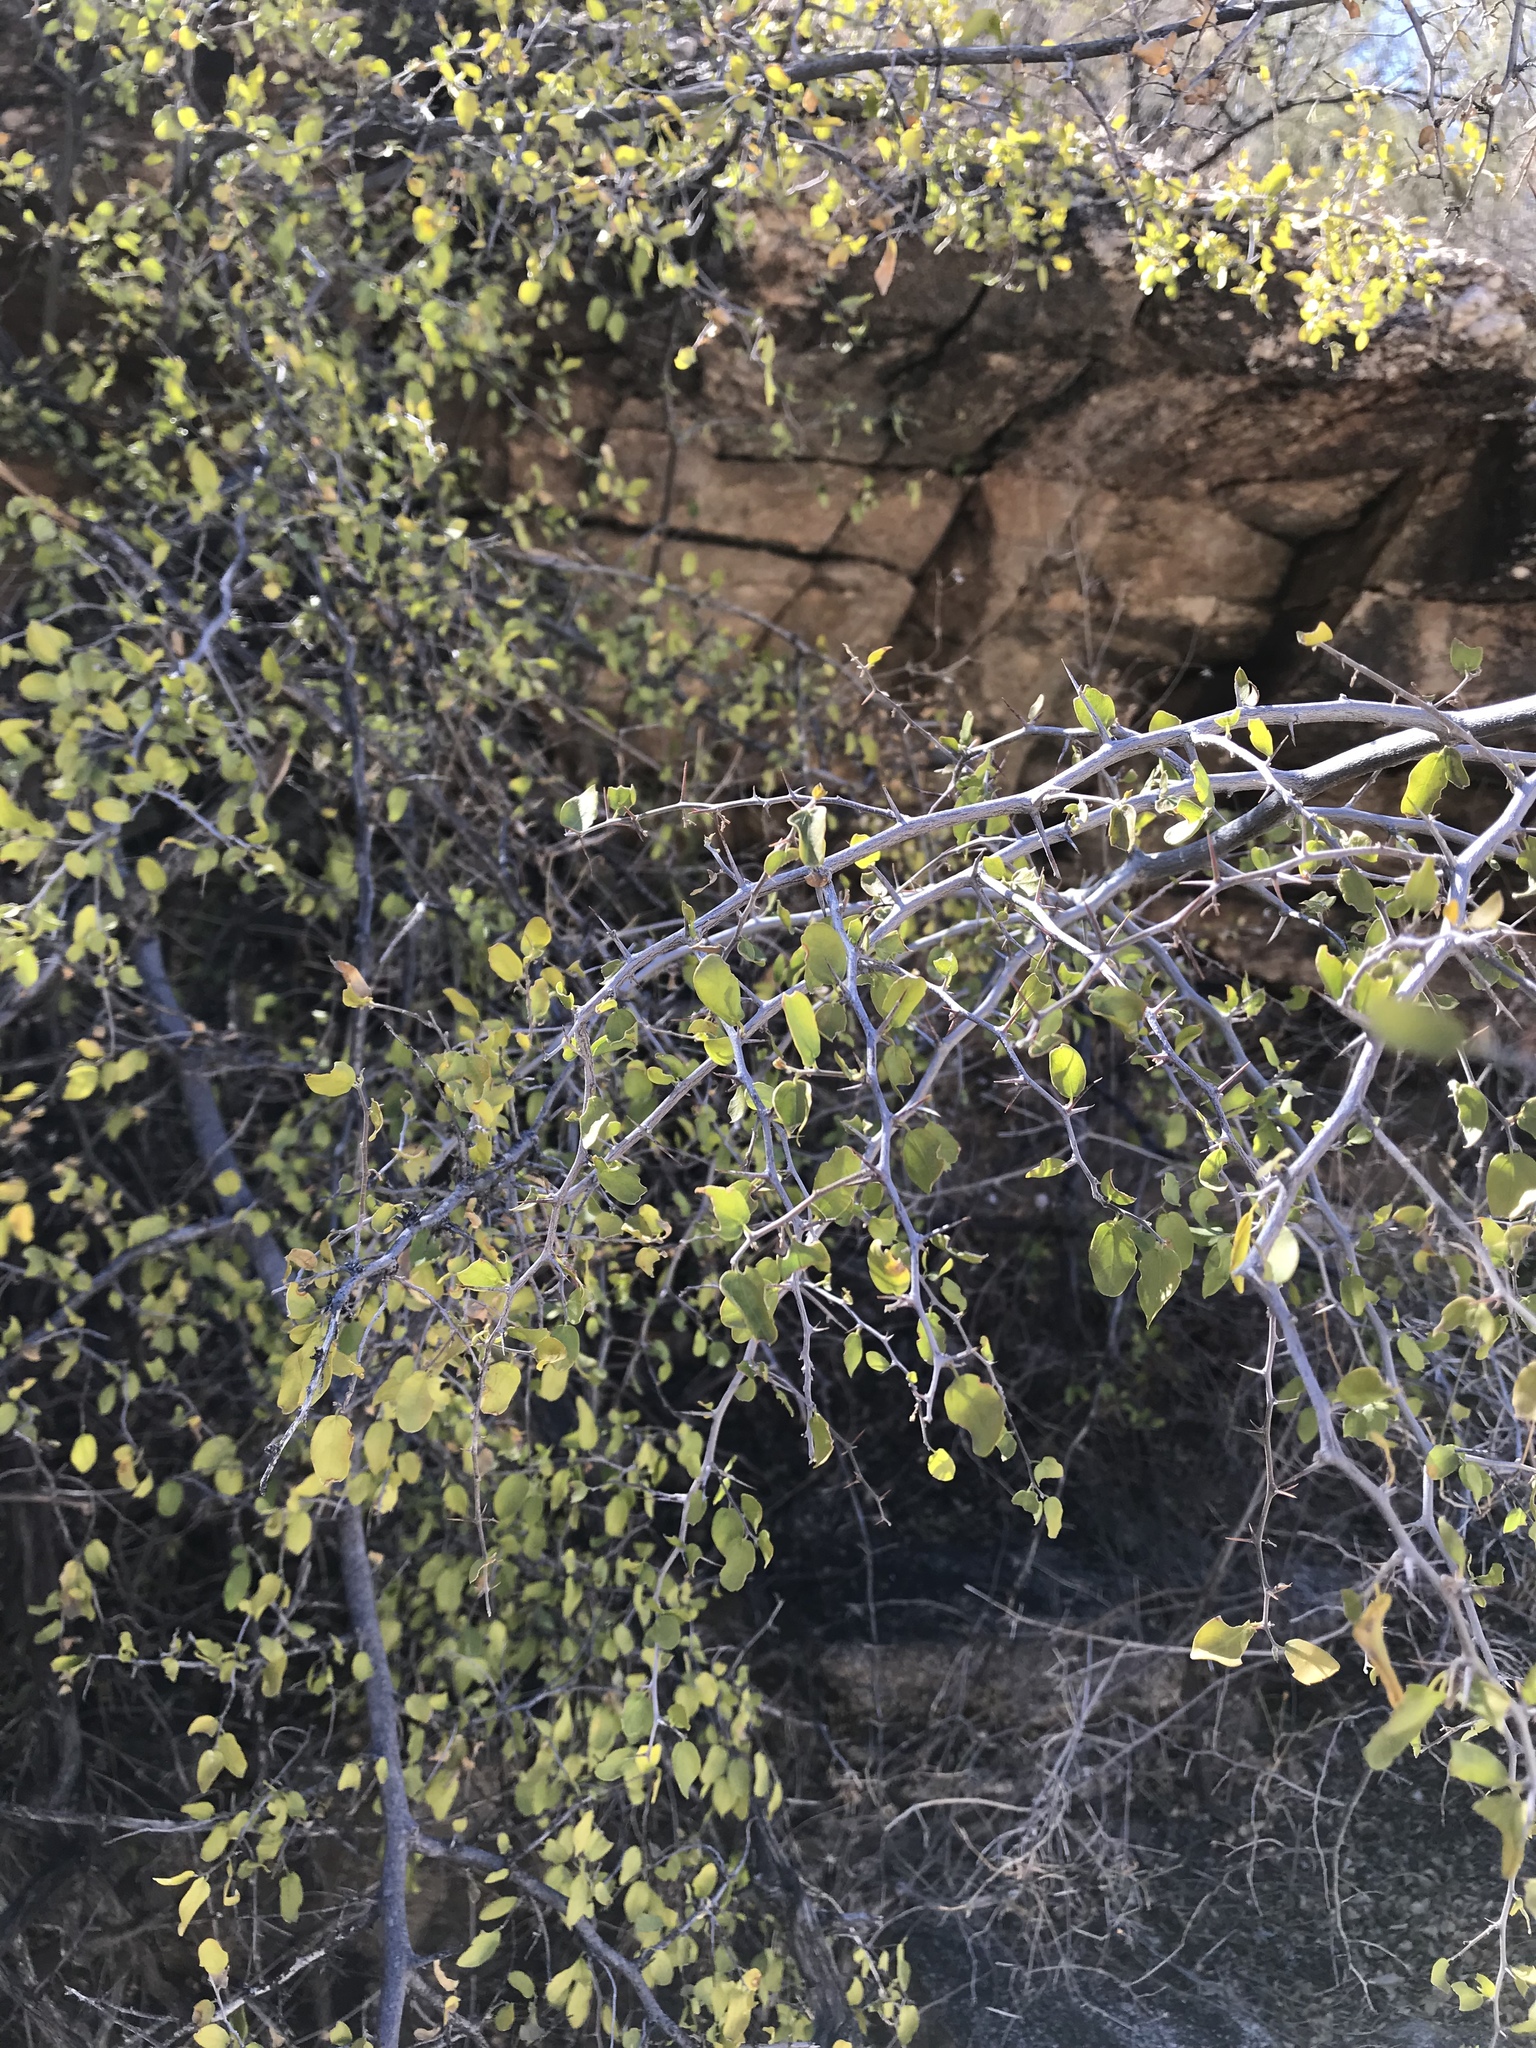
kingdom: Plantae
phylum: Tracheophyta
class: Magnoliopsida
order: Rosales
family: Cannabaceae
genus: Celtis
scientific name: Celtis pallida
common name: Desert hackberry
